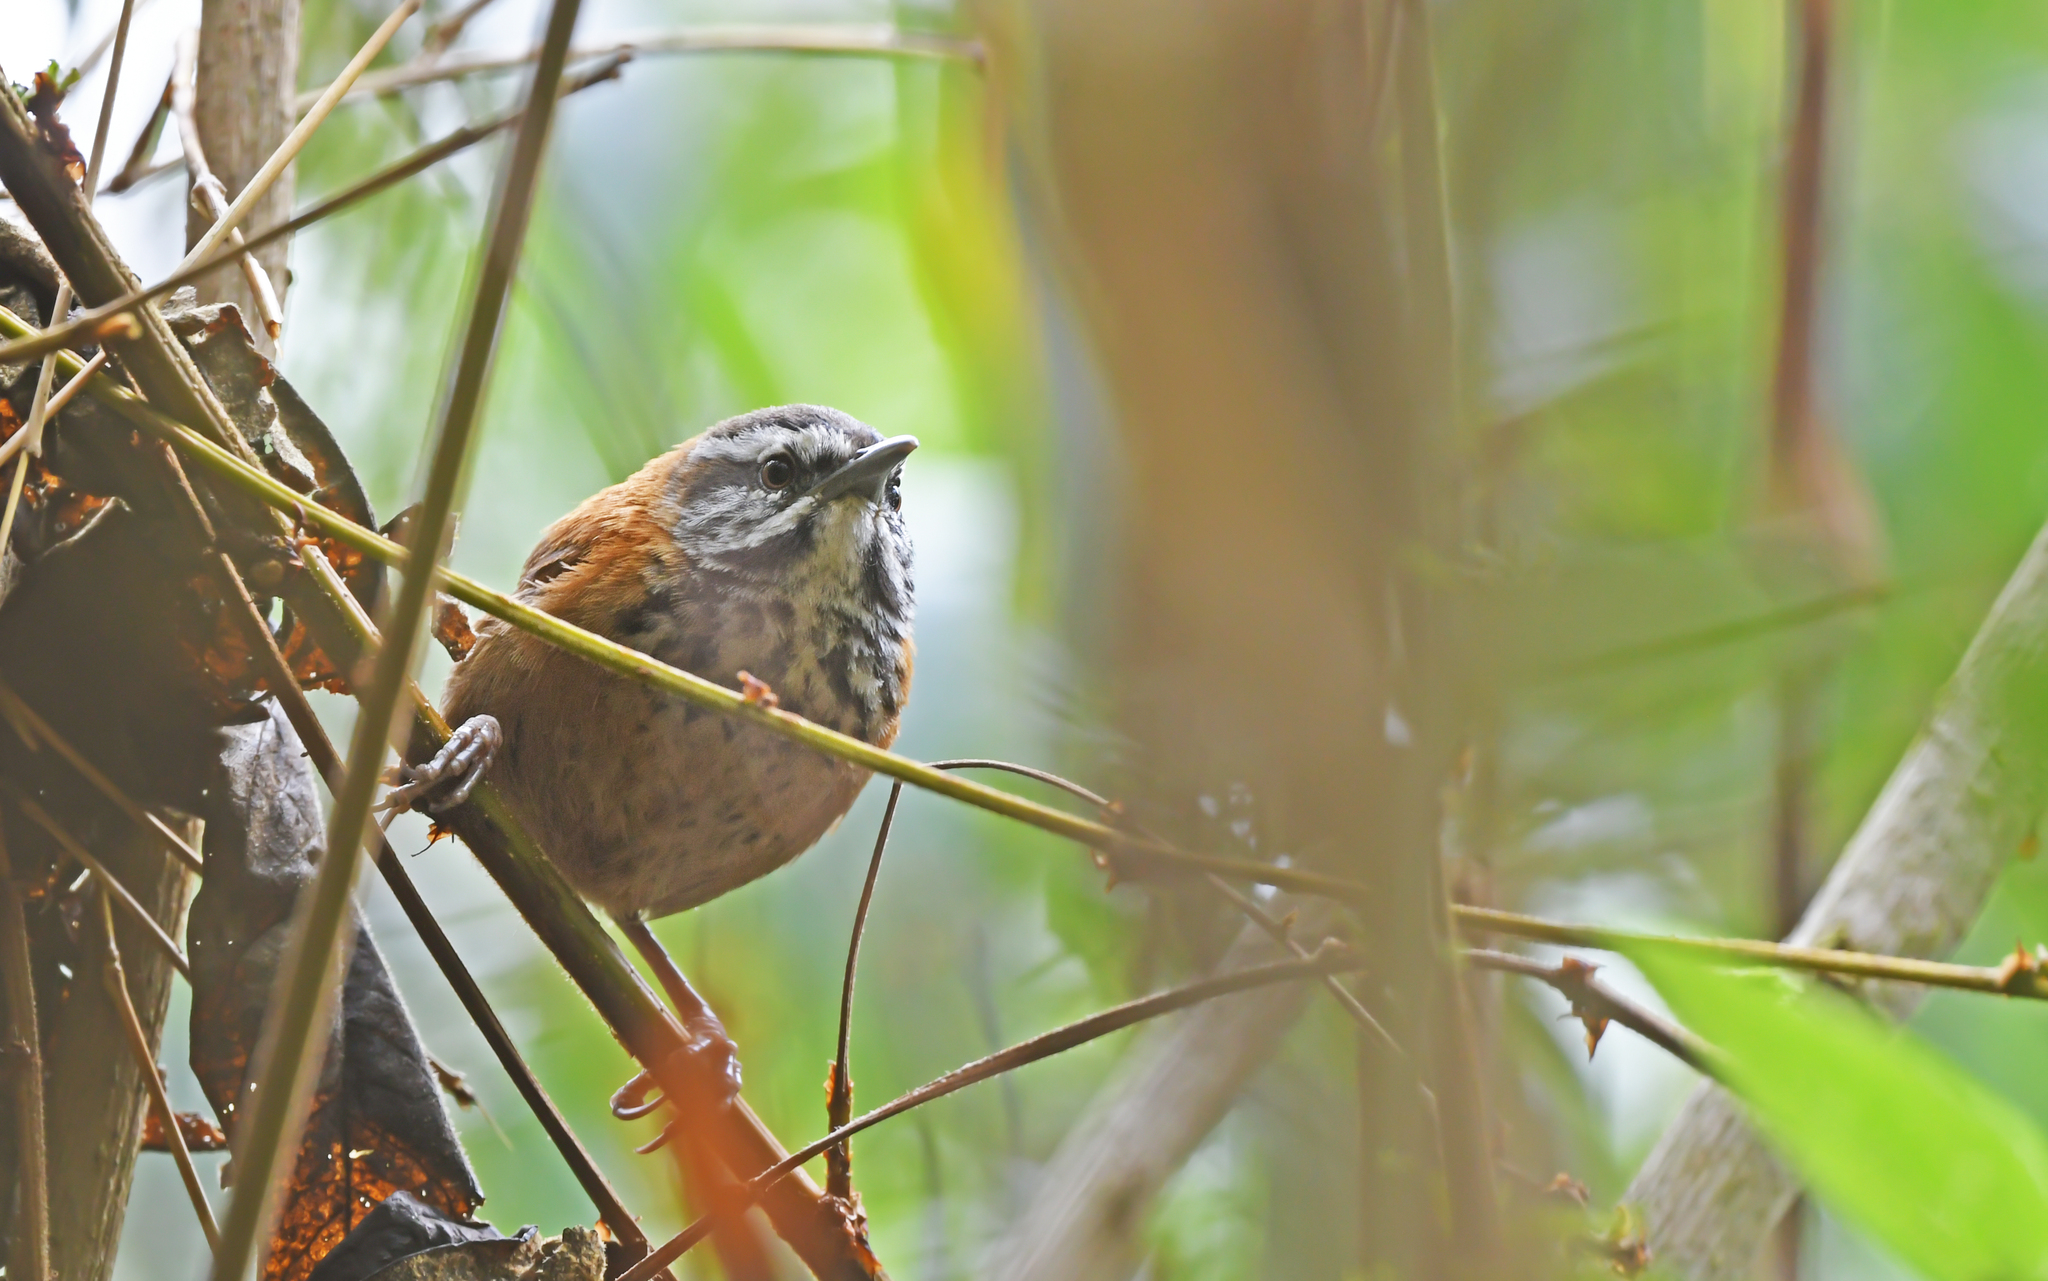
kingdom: Animalia
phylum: Chordata
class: Aves
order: Passeriformes
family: Troglodytidae
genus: Pheugopedius
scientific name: Pheugopedius eisenmanni
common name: Inca wren
